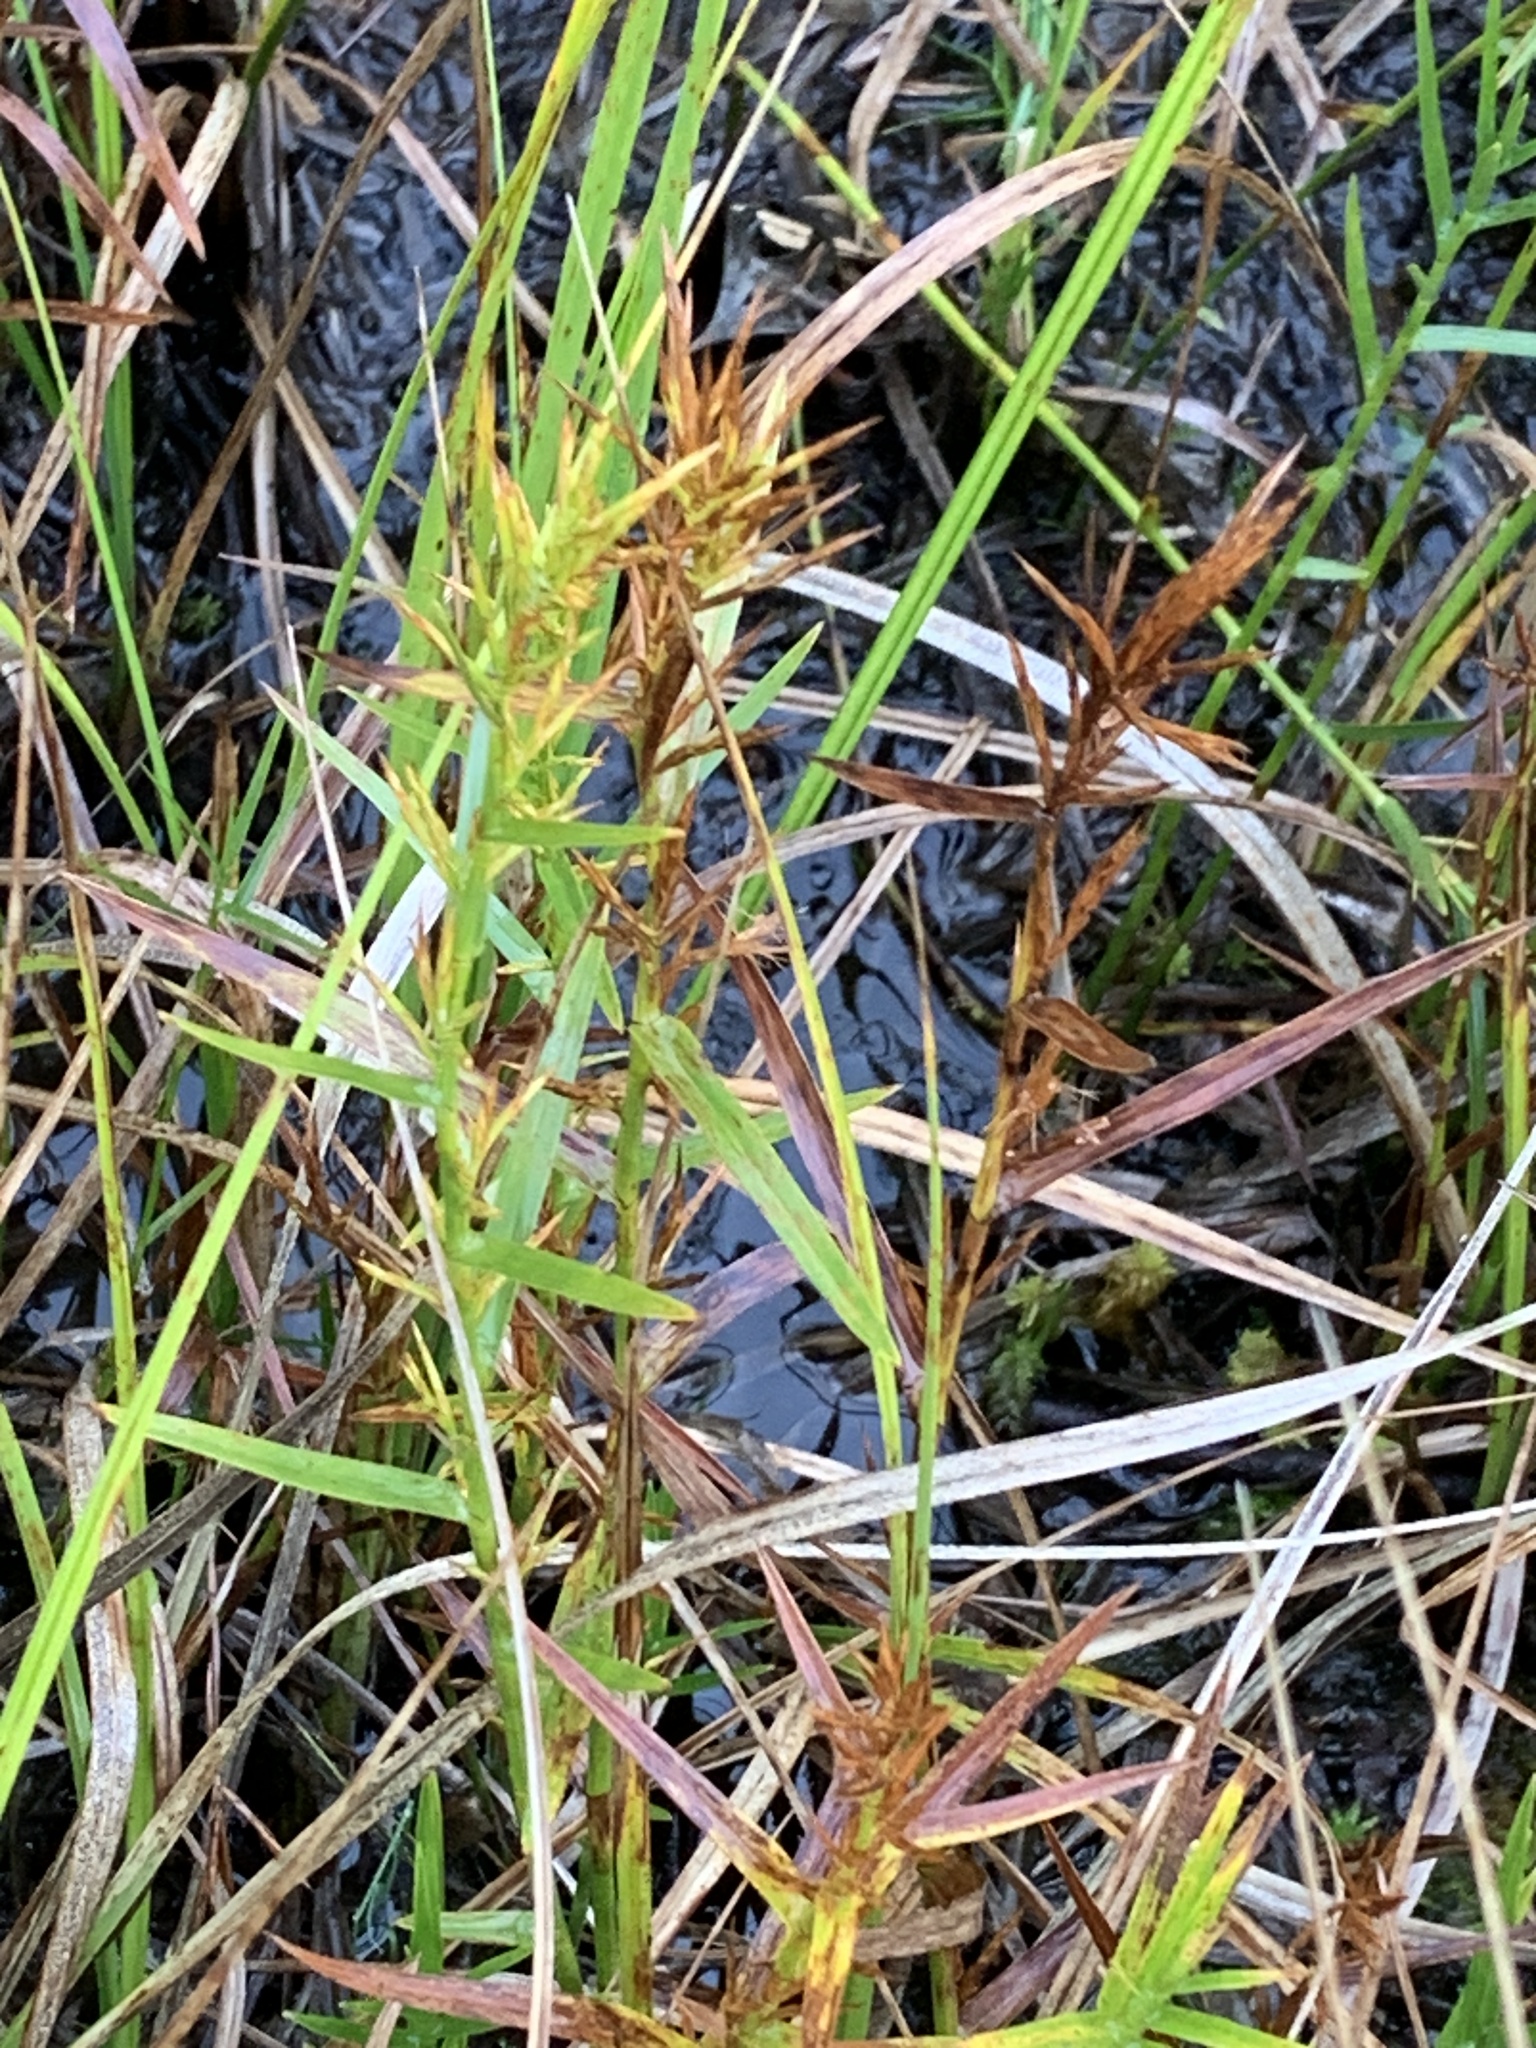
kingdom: Plantae
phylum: Tracheophyta
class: Liliopsida
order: Poales
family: Cyperaceae
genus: Dulichium
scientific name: Dulichium arundinaceum
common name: Three-way sedge
